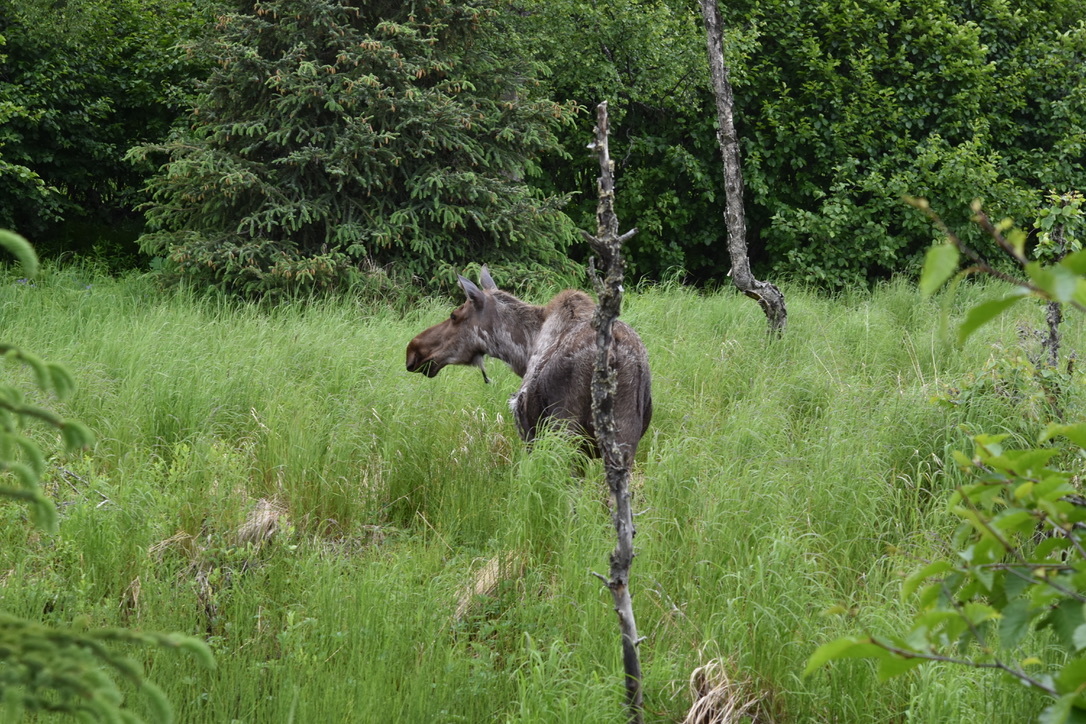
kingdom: Animalia
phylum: Chordata
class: Mammalia
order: Artiodactyla
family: Cervidae
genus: Alces
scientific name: Alces alces
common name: Moose
